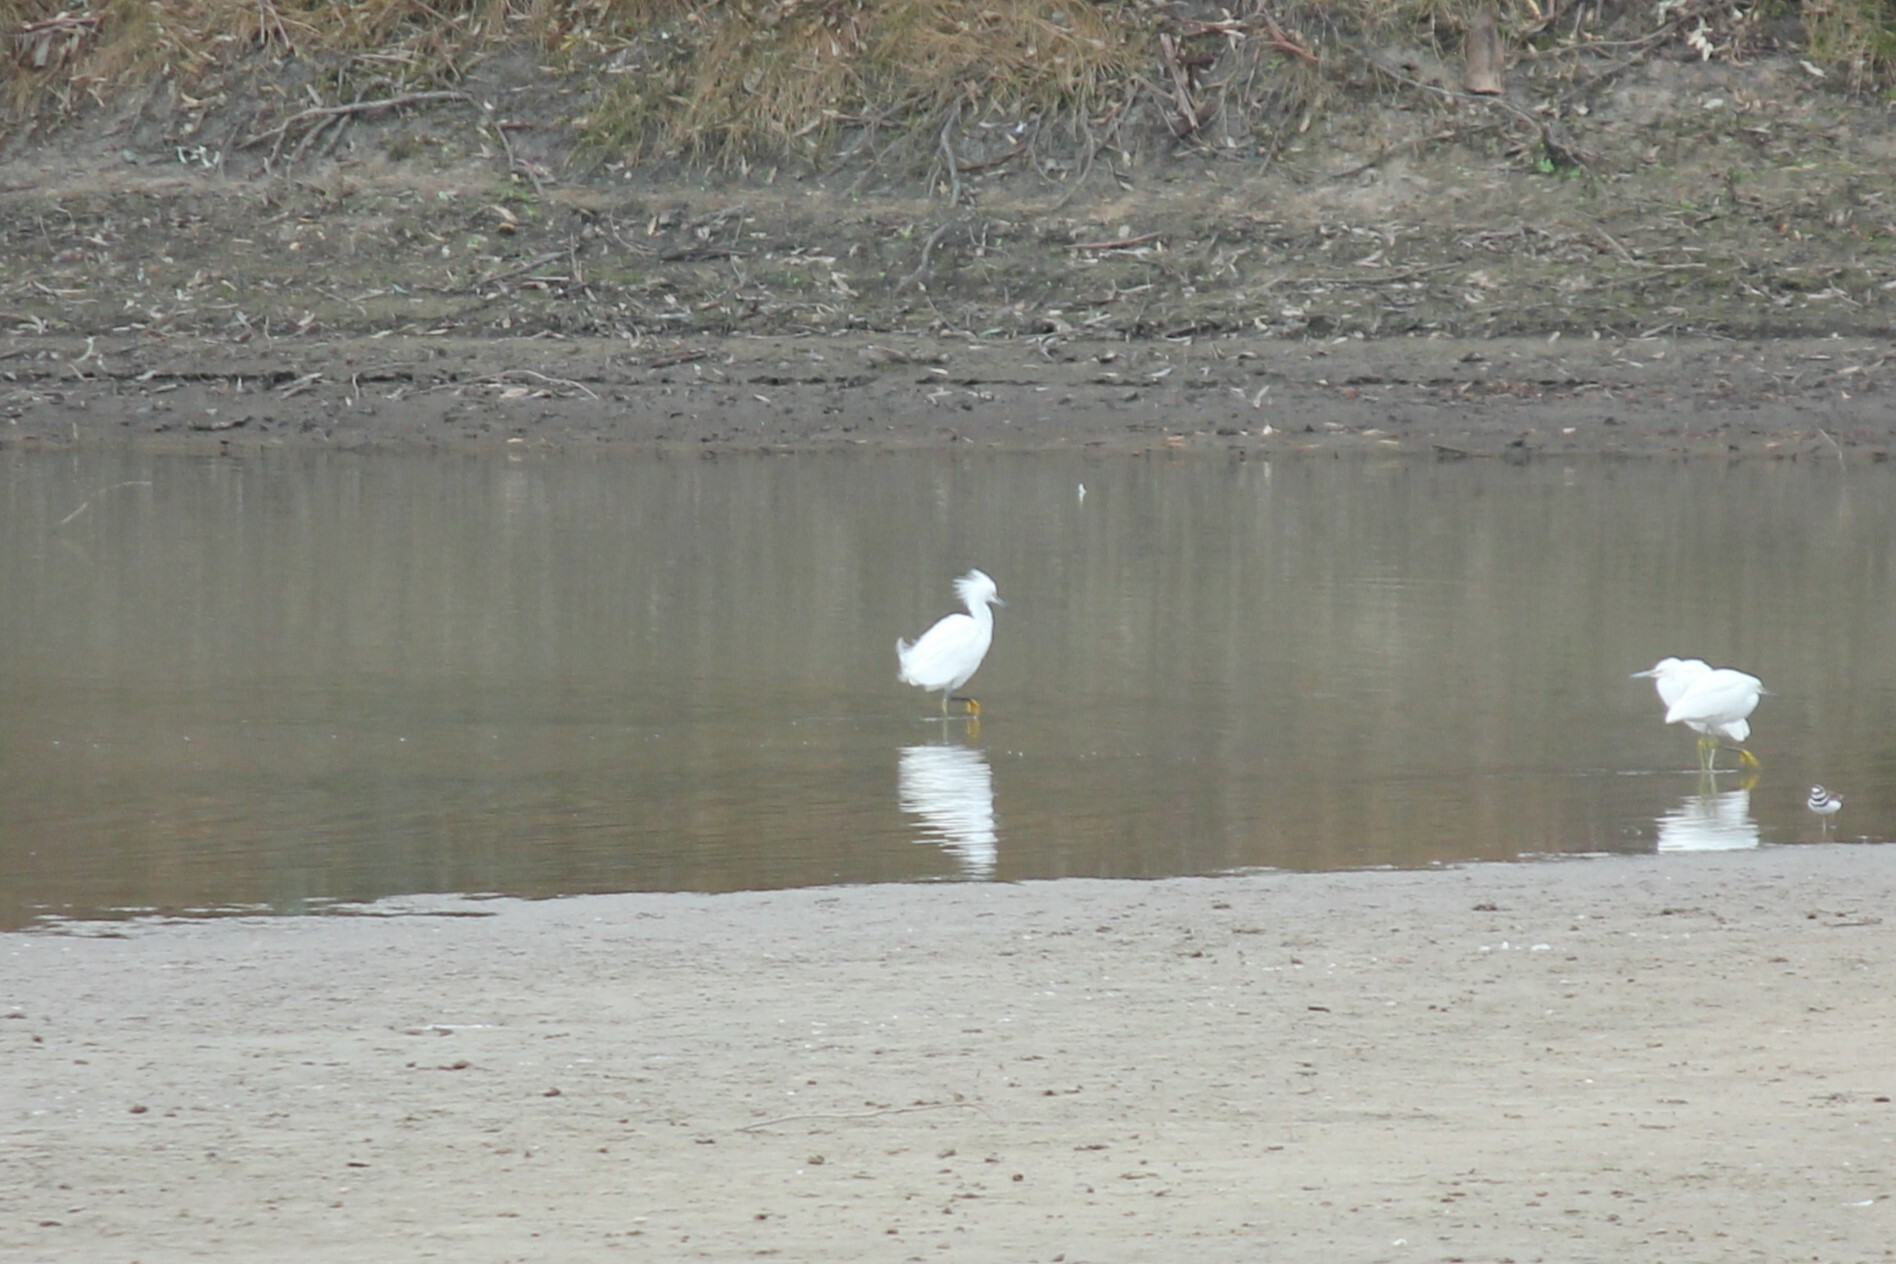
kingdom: Animalia
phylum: Chordata
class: Aves
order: Pelecaniformes
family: Ardeidae
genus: Egretta
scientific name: Egretta thula
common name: Snowy egret
